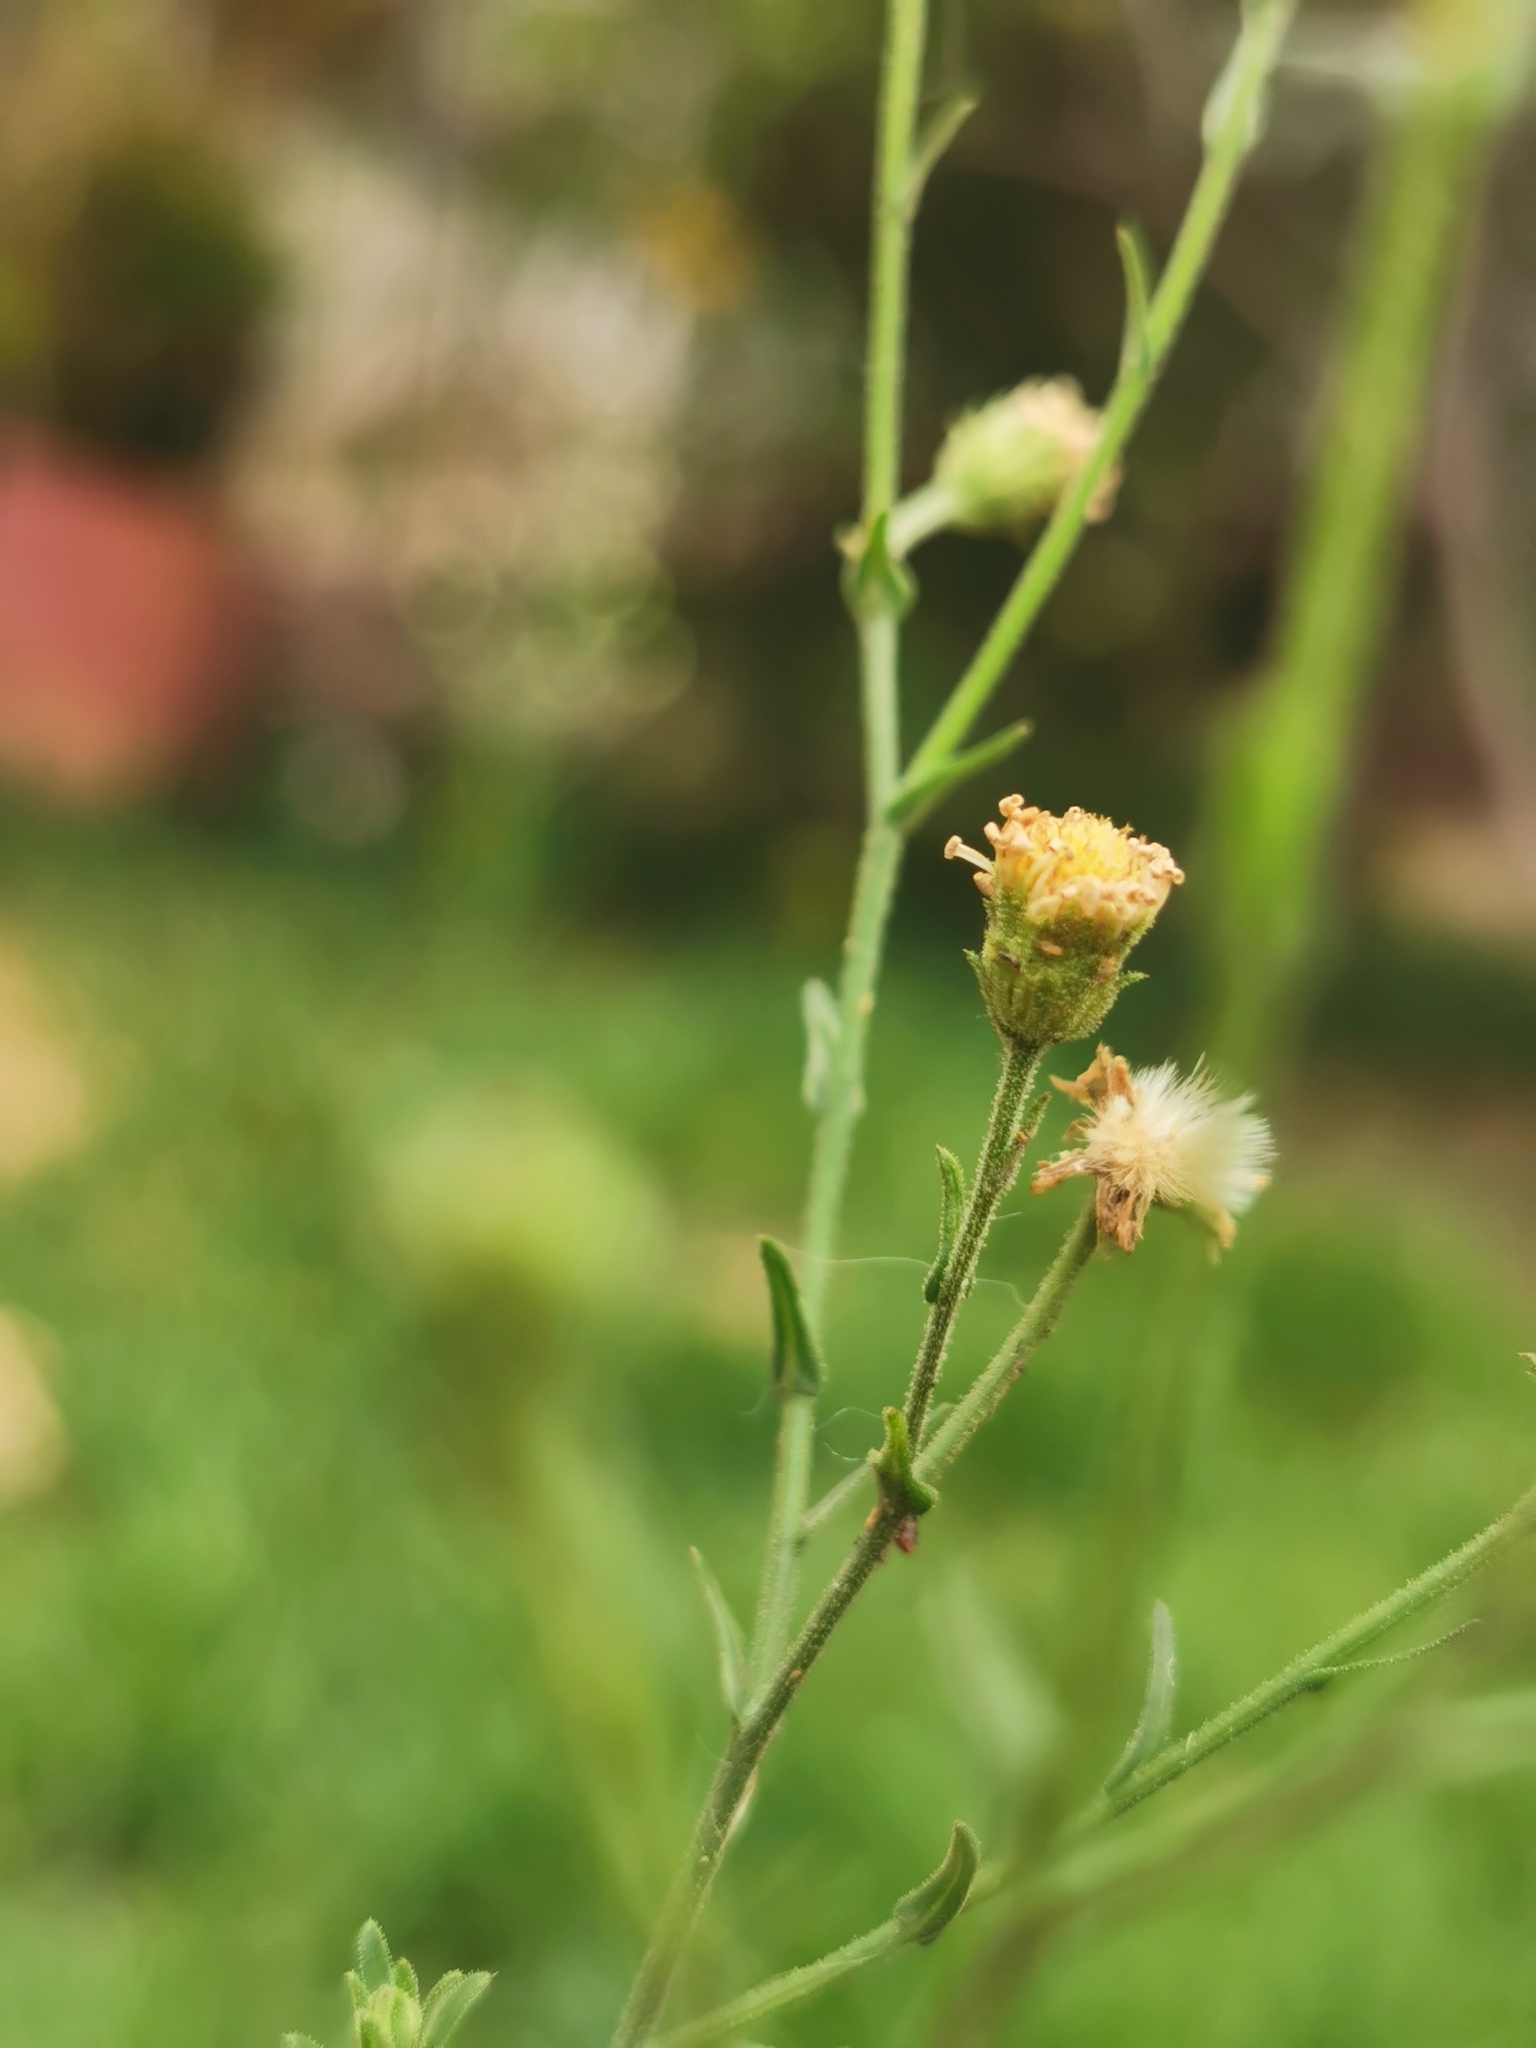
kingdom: Plantae
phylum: Tracheophyta
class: Magnoliopsida
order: Asterales
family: Asteraceae
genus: Erigeron
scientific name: Erigeron bonariensis
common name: Argentine fleabane
